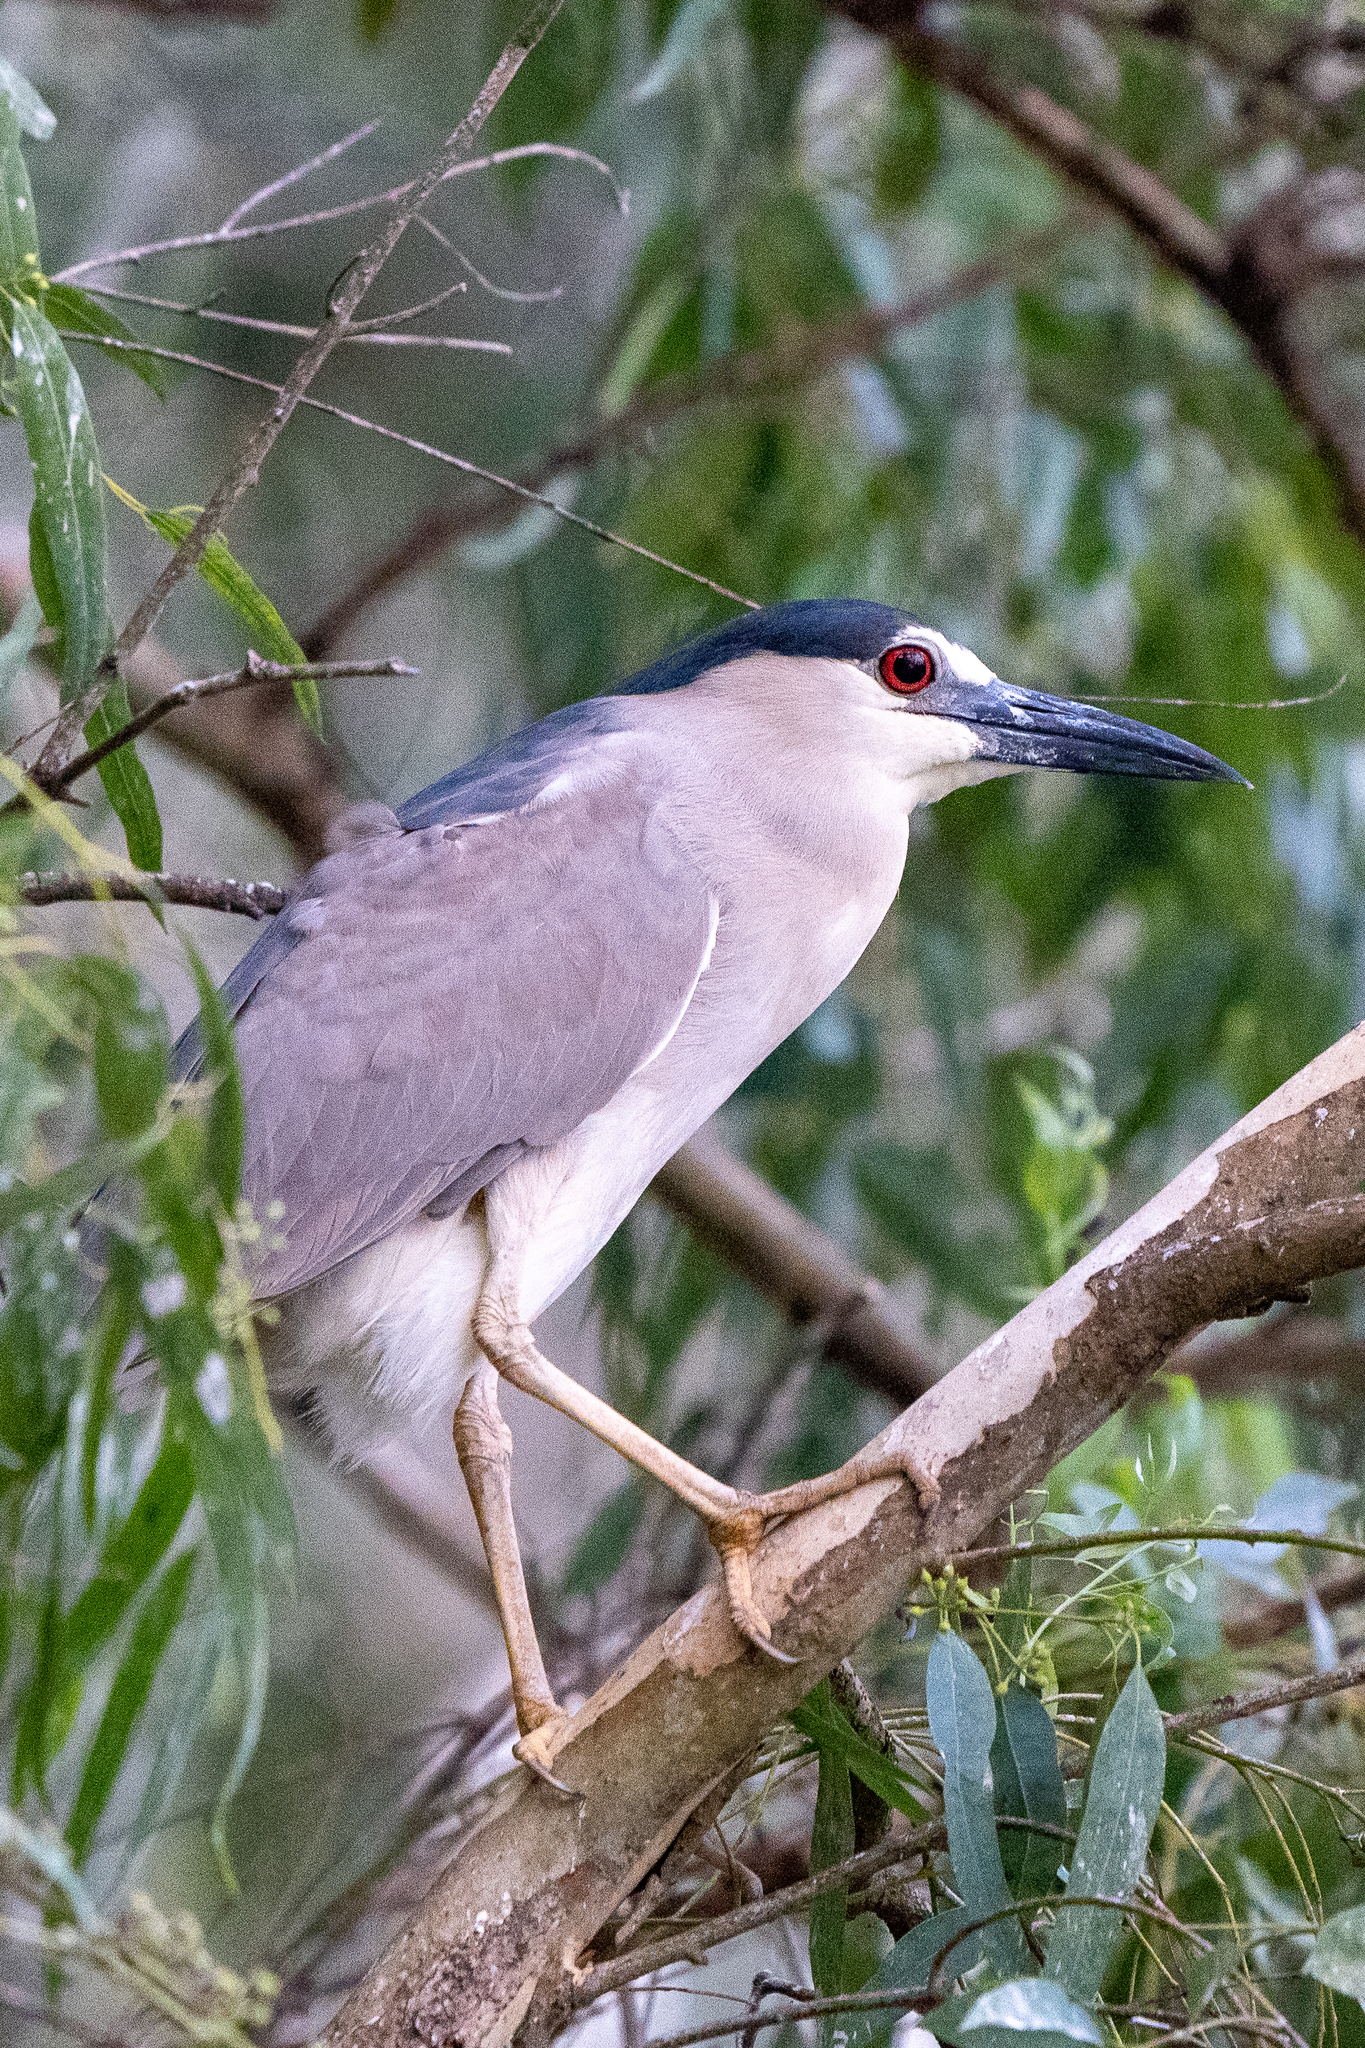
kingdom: Animalia
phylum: Chordata
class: Aves
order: Pelecaniformes
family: Ardeidae
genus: Nycticorax
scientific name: Nycticorax nycticorax
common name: Black-crowned night heron
